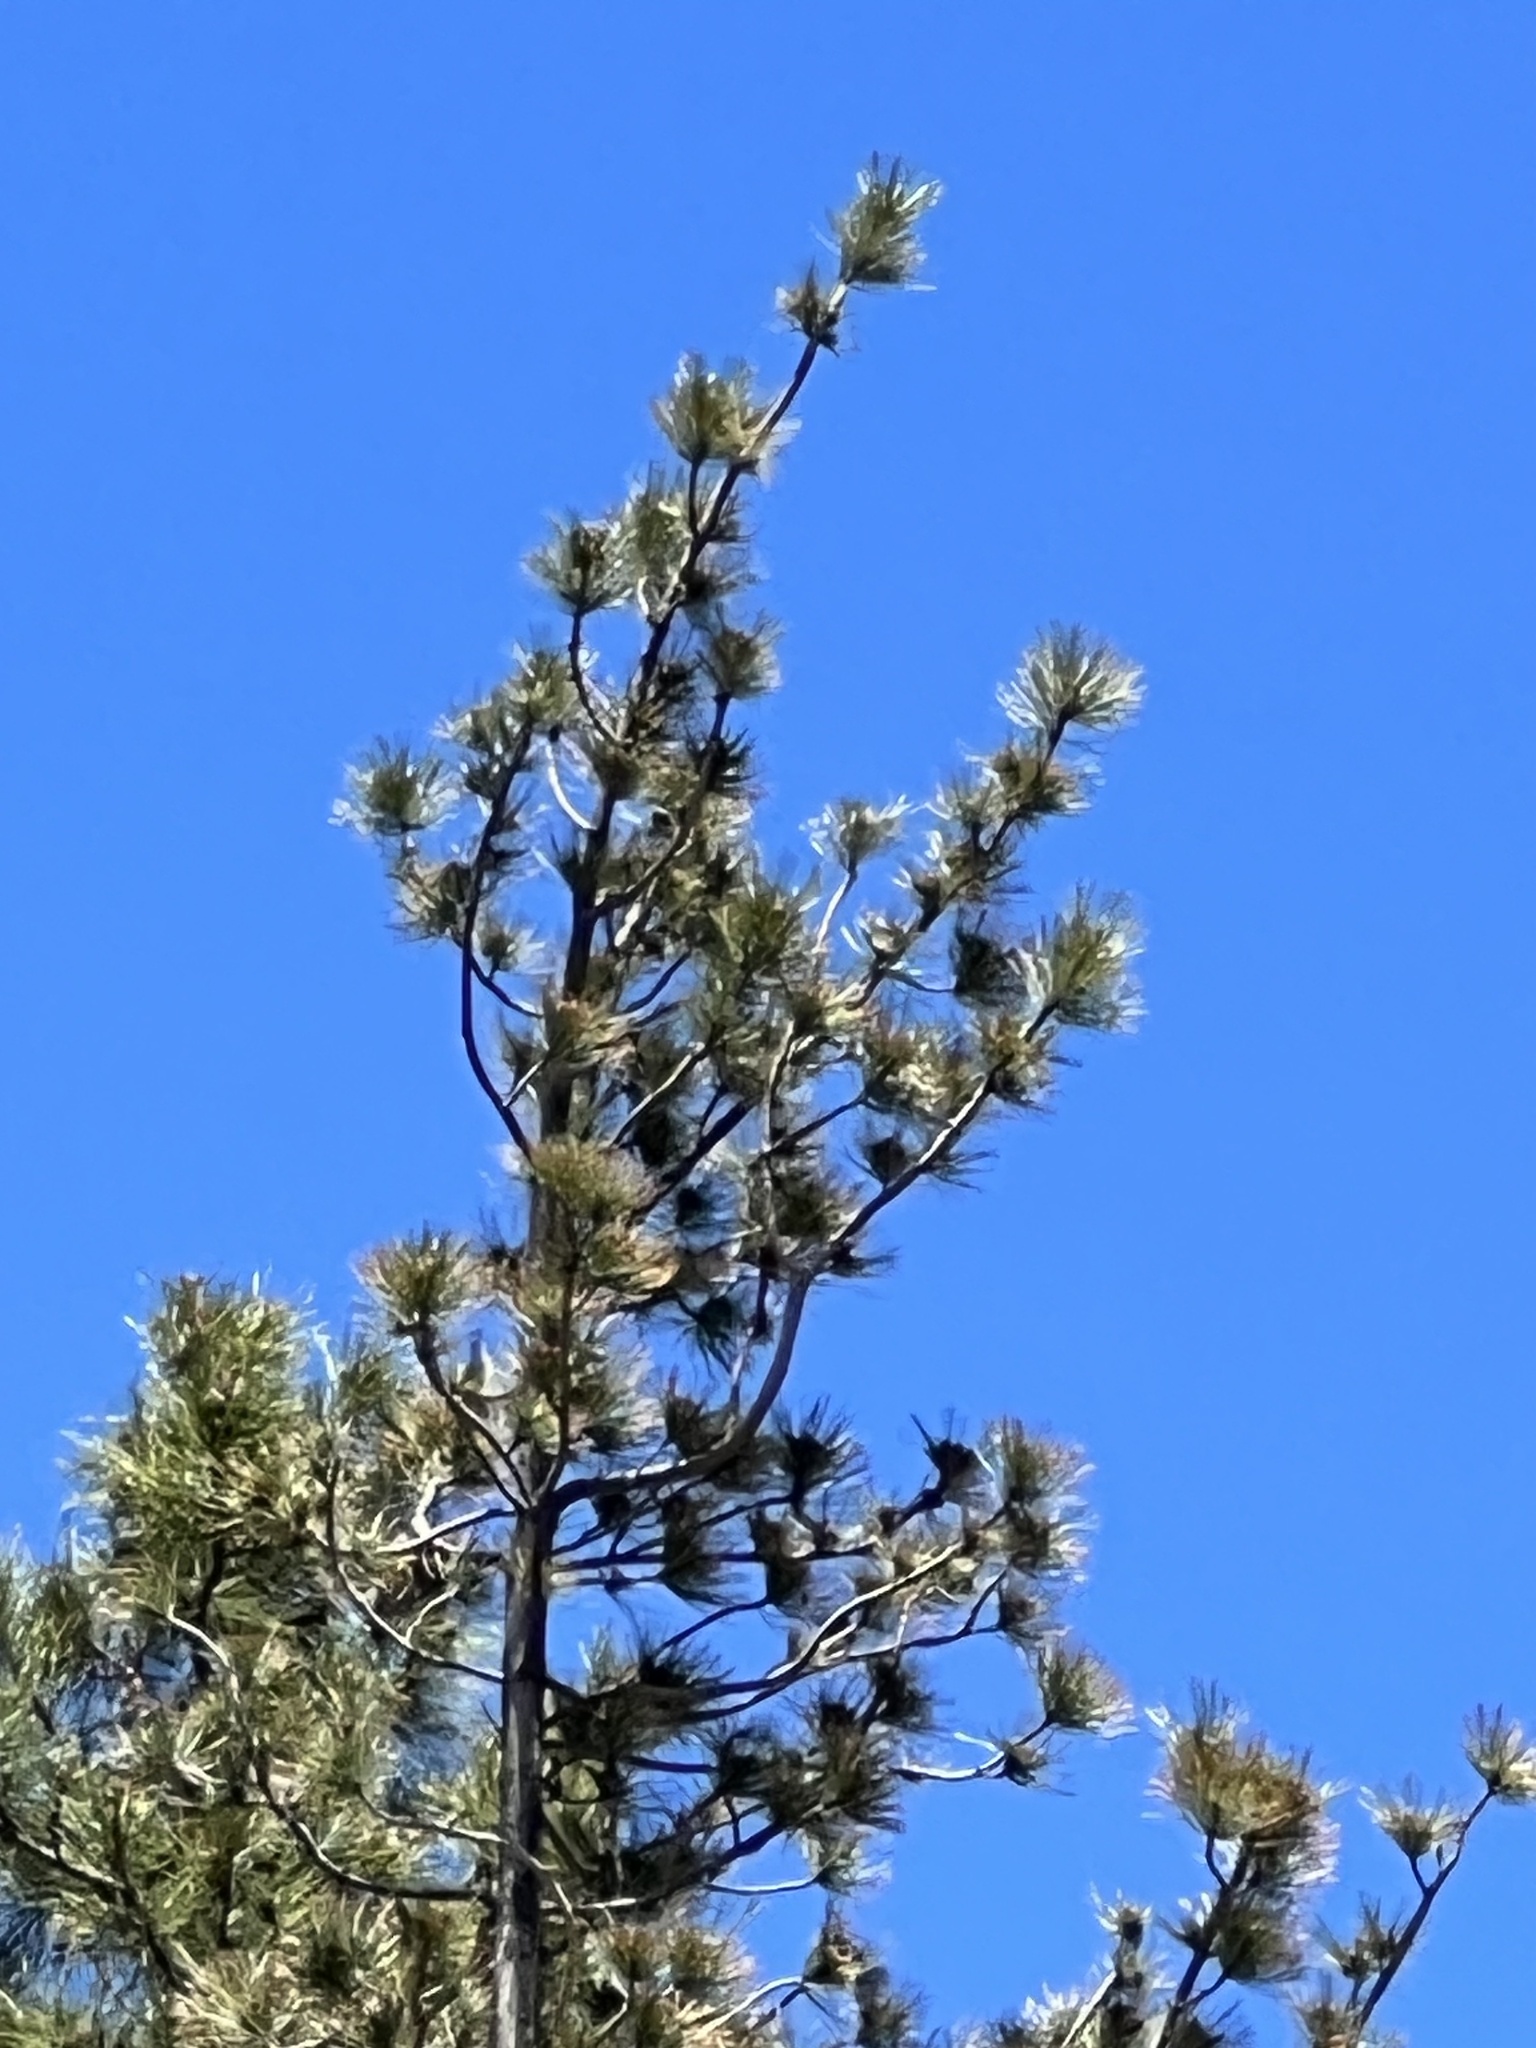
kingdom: Plantae
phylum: Tracheophyta
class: Pinopsida
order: Pinales
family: Pinaceae
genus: Pinus
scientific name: Pinus ponderosa
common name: Western yellow-pine
